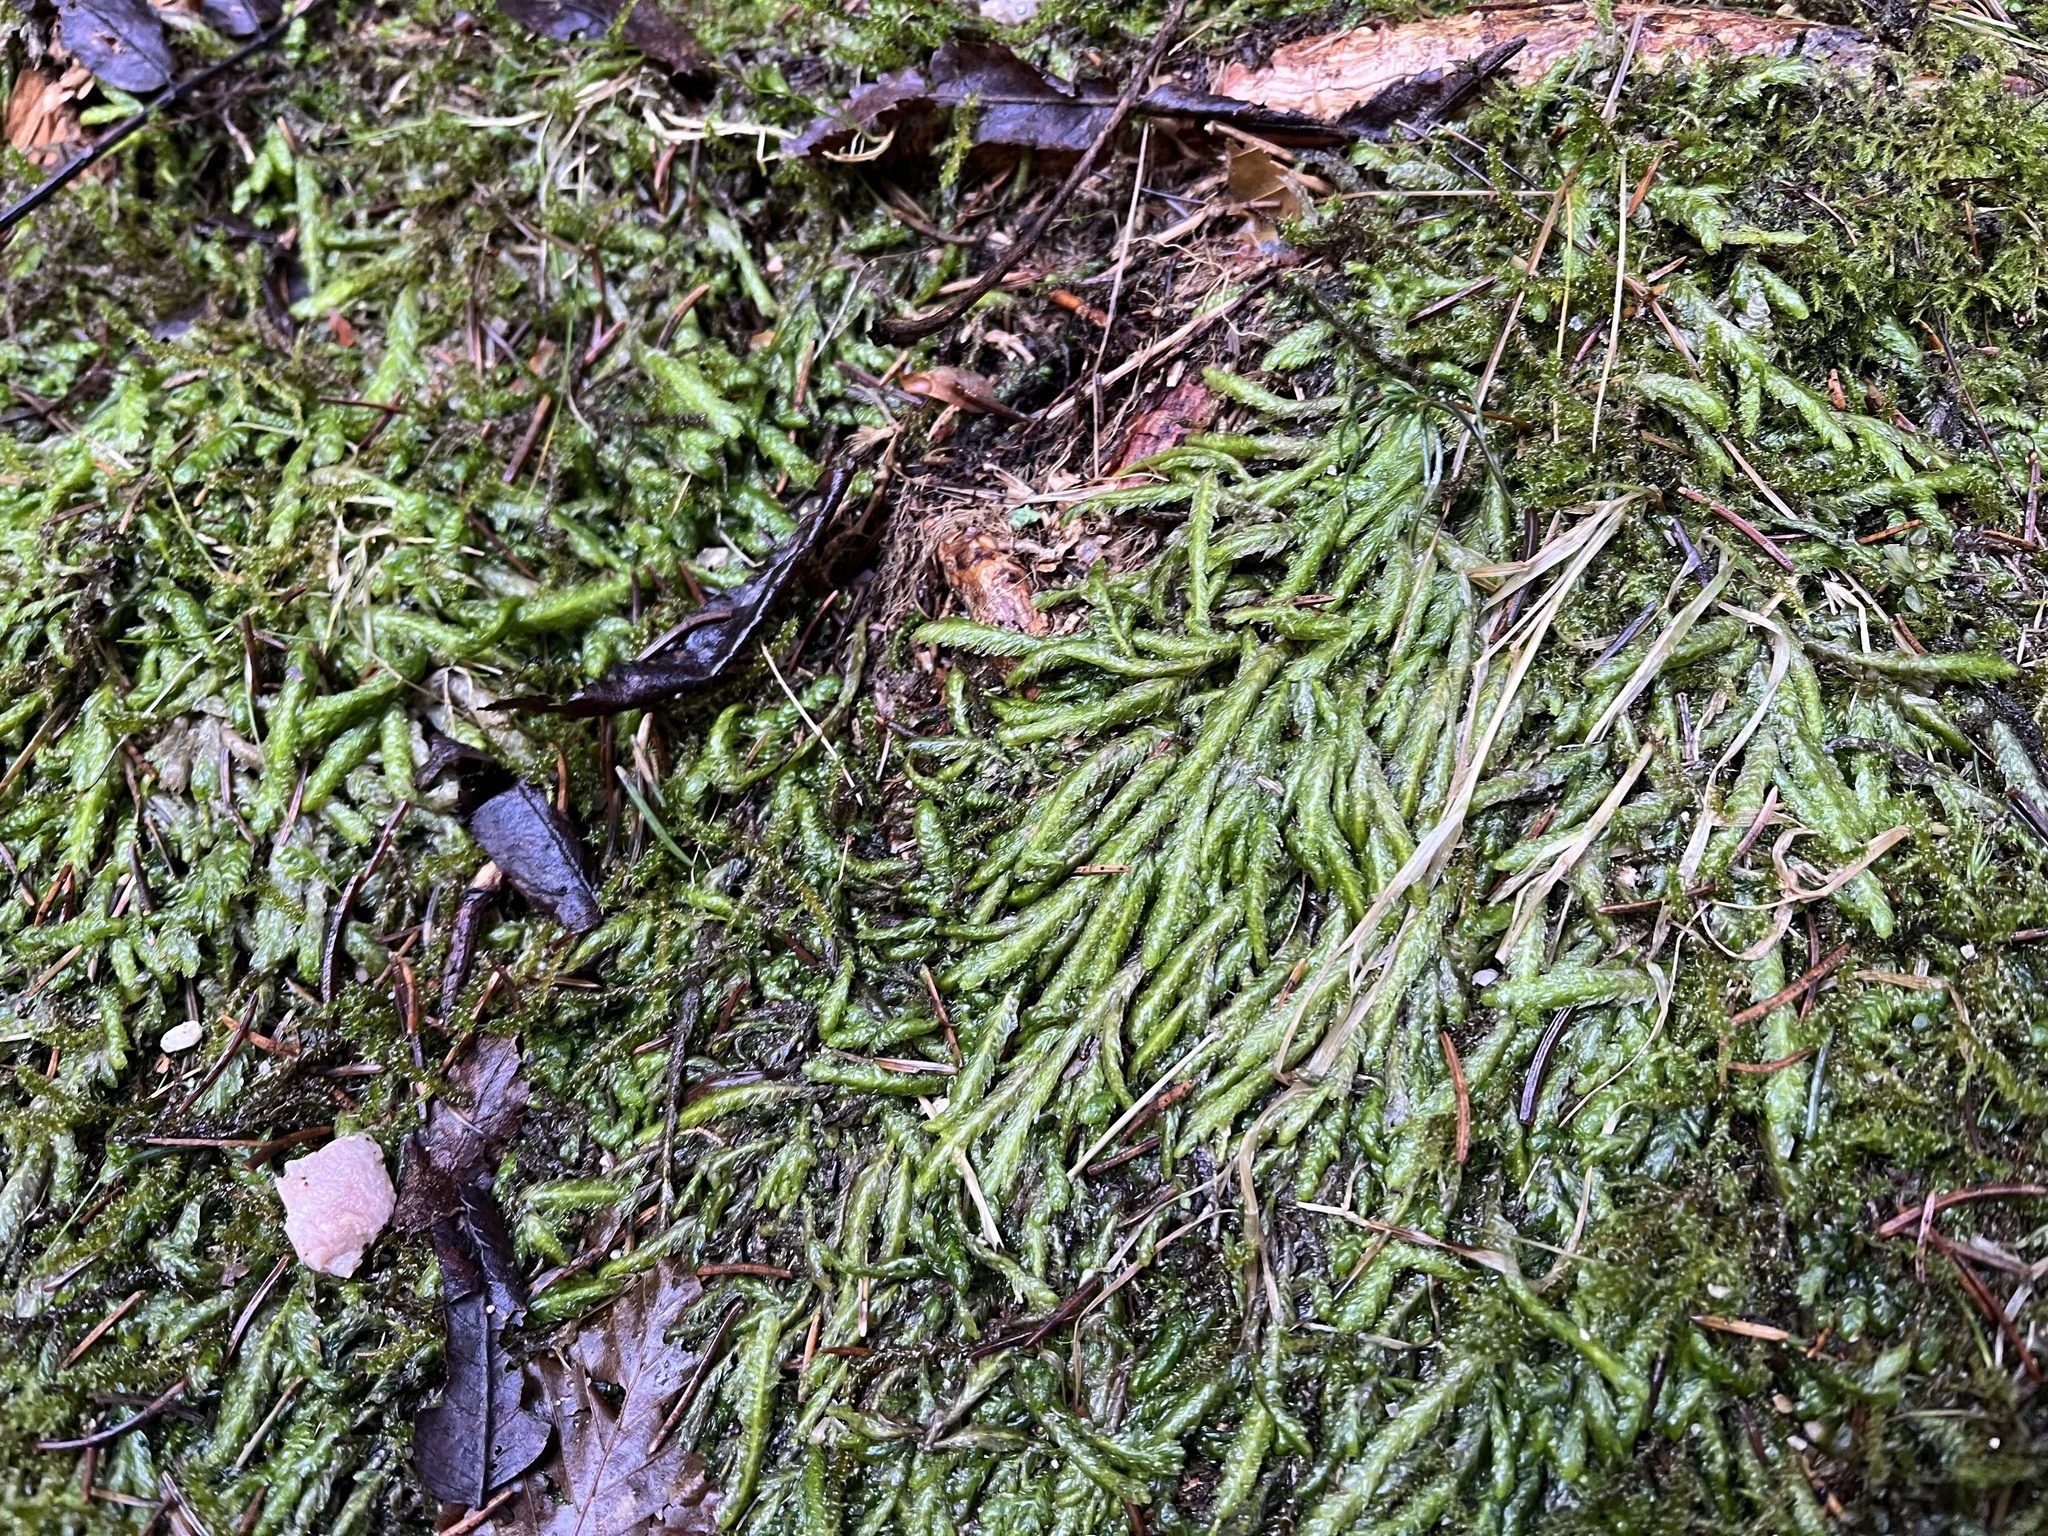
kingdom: Plantae
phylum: Bryophyta
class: Bryopsida
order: Hypnales
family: Plagiotheciaceae
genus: Plagiothecium
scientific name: Plagiothecium undulatum
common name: Waved silk-moss
